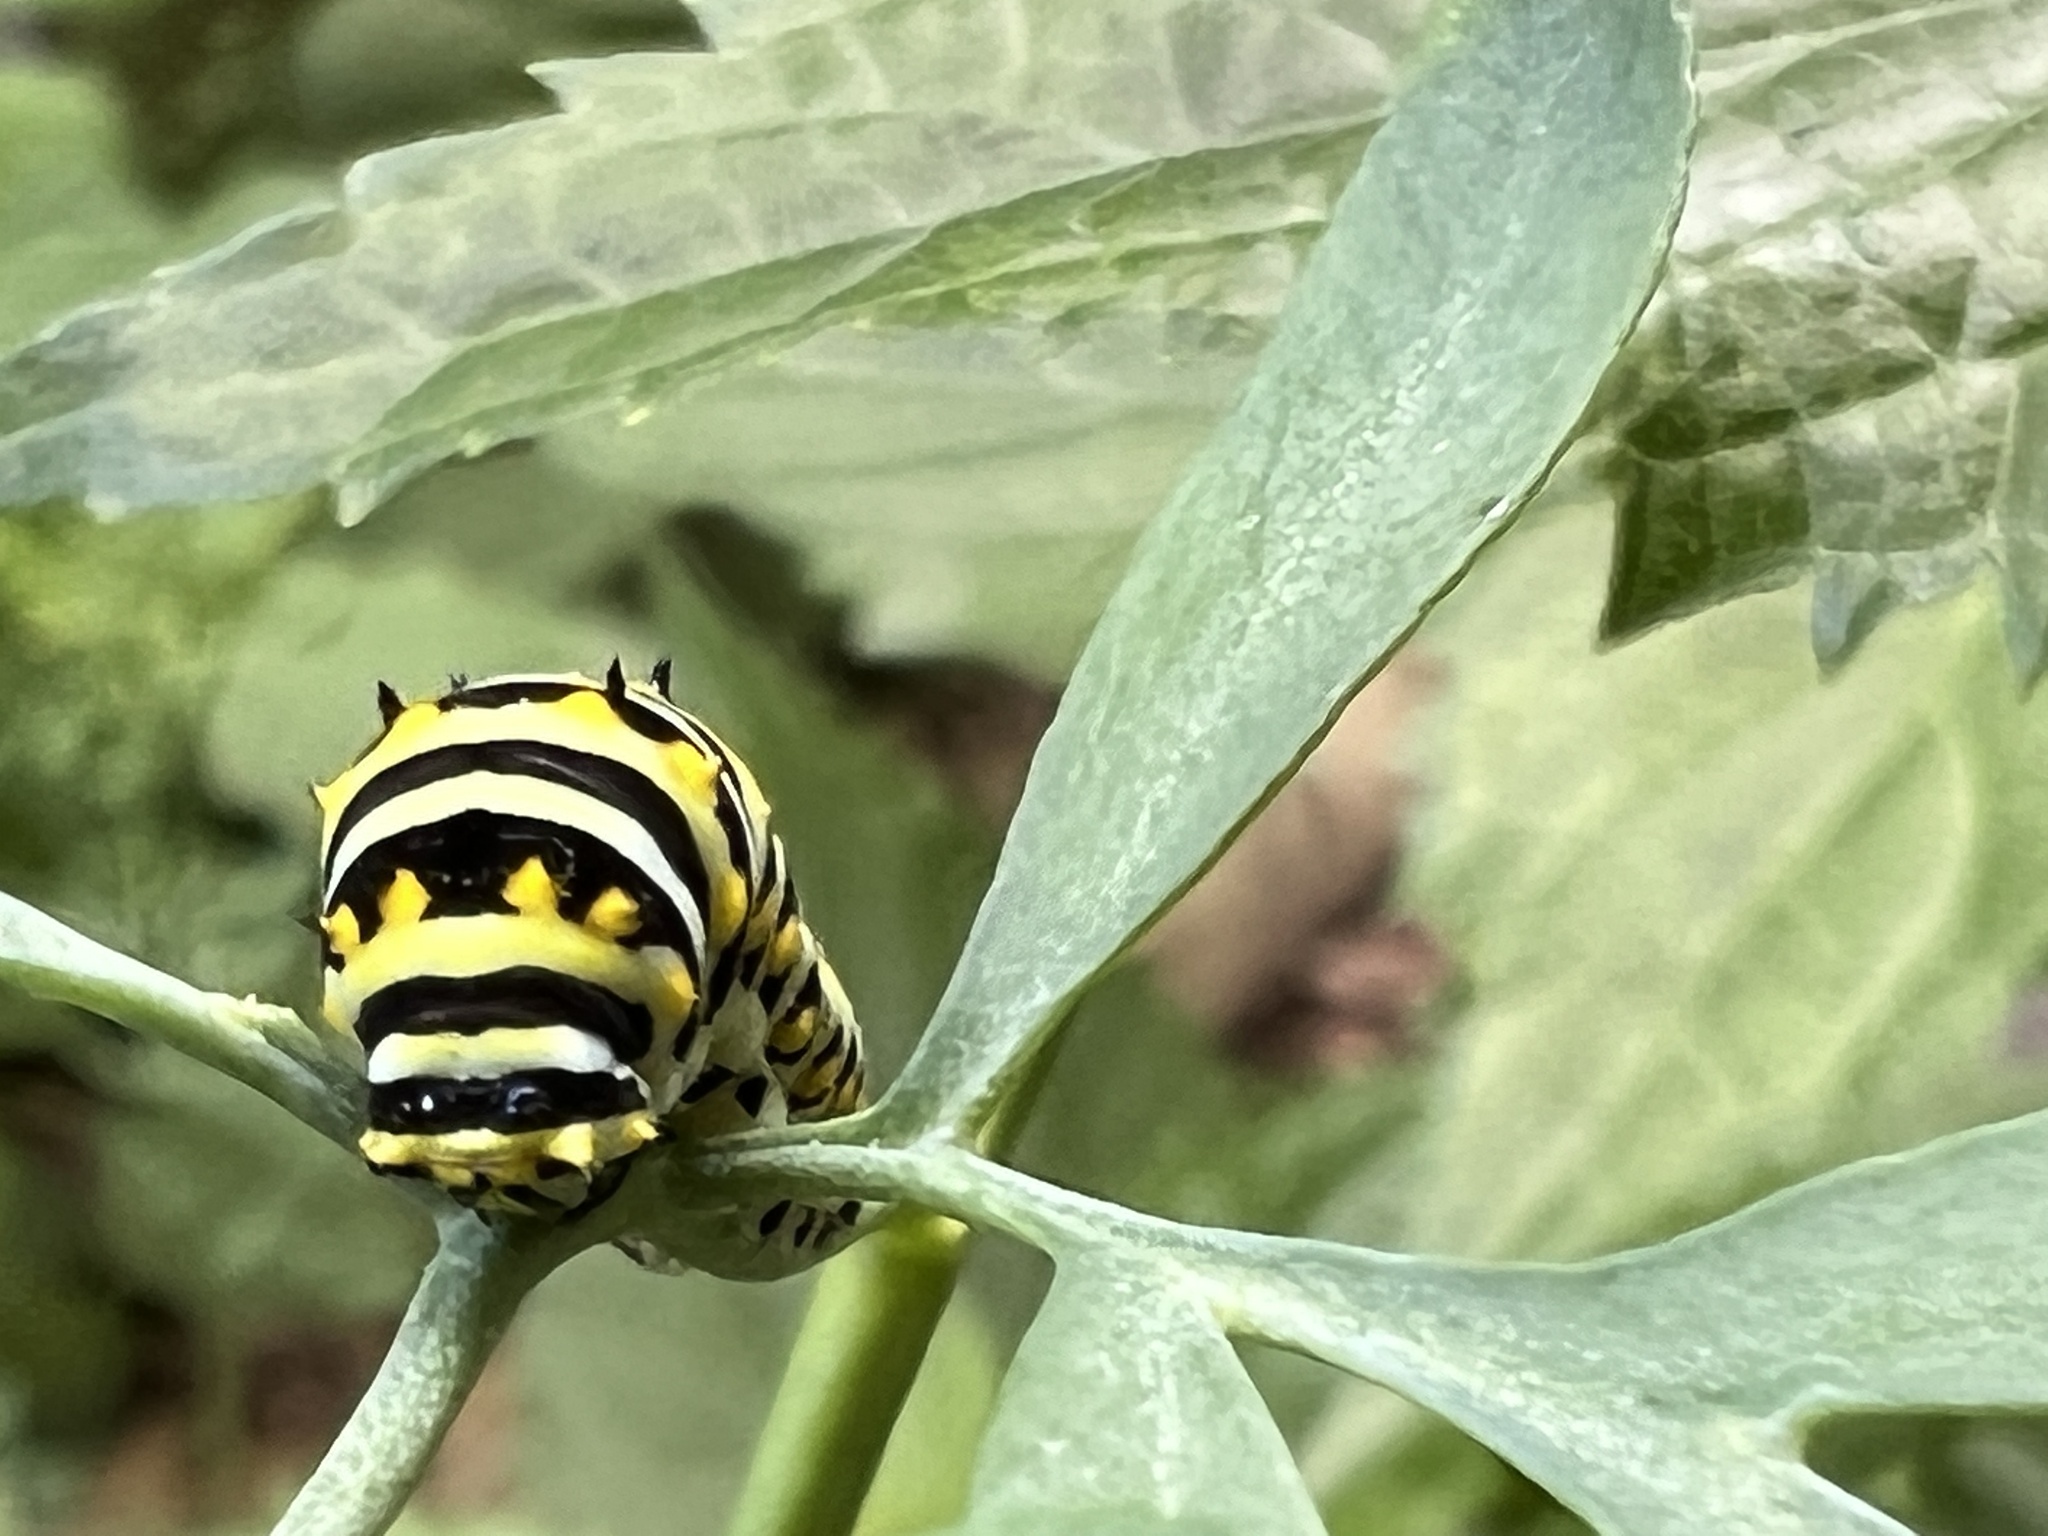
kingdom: Animalia
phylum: Arthropoda
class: Insecta
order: Lepidoptera
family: Papilionidae
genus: Papilio
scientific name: Papilio polyxenes
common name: Black swallowtail
